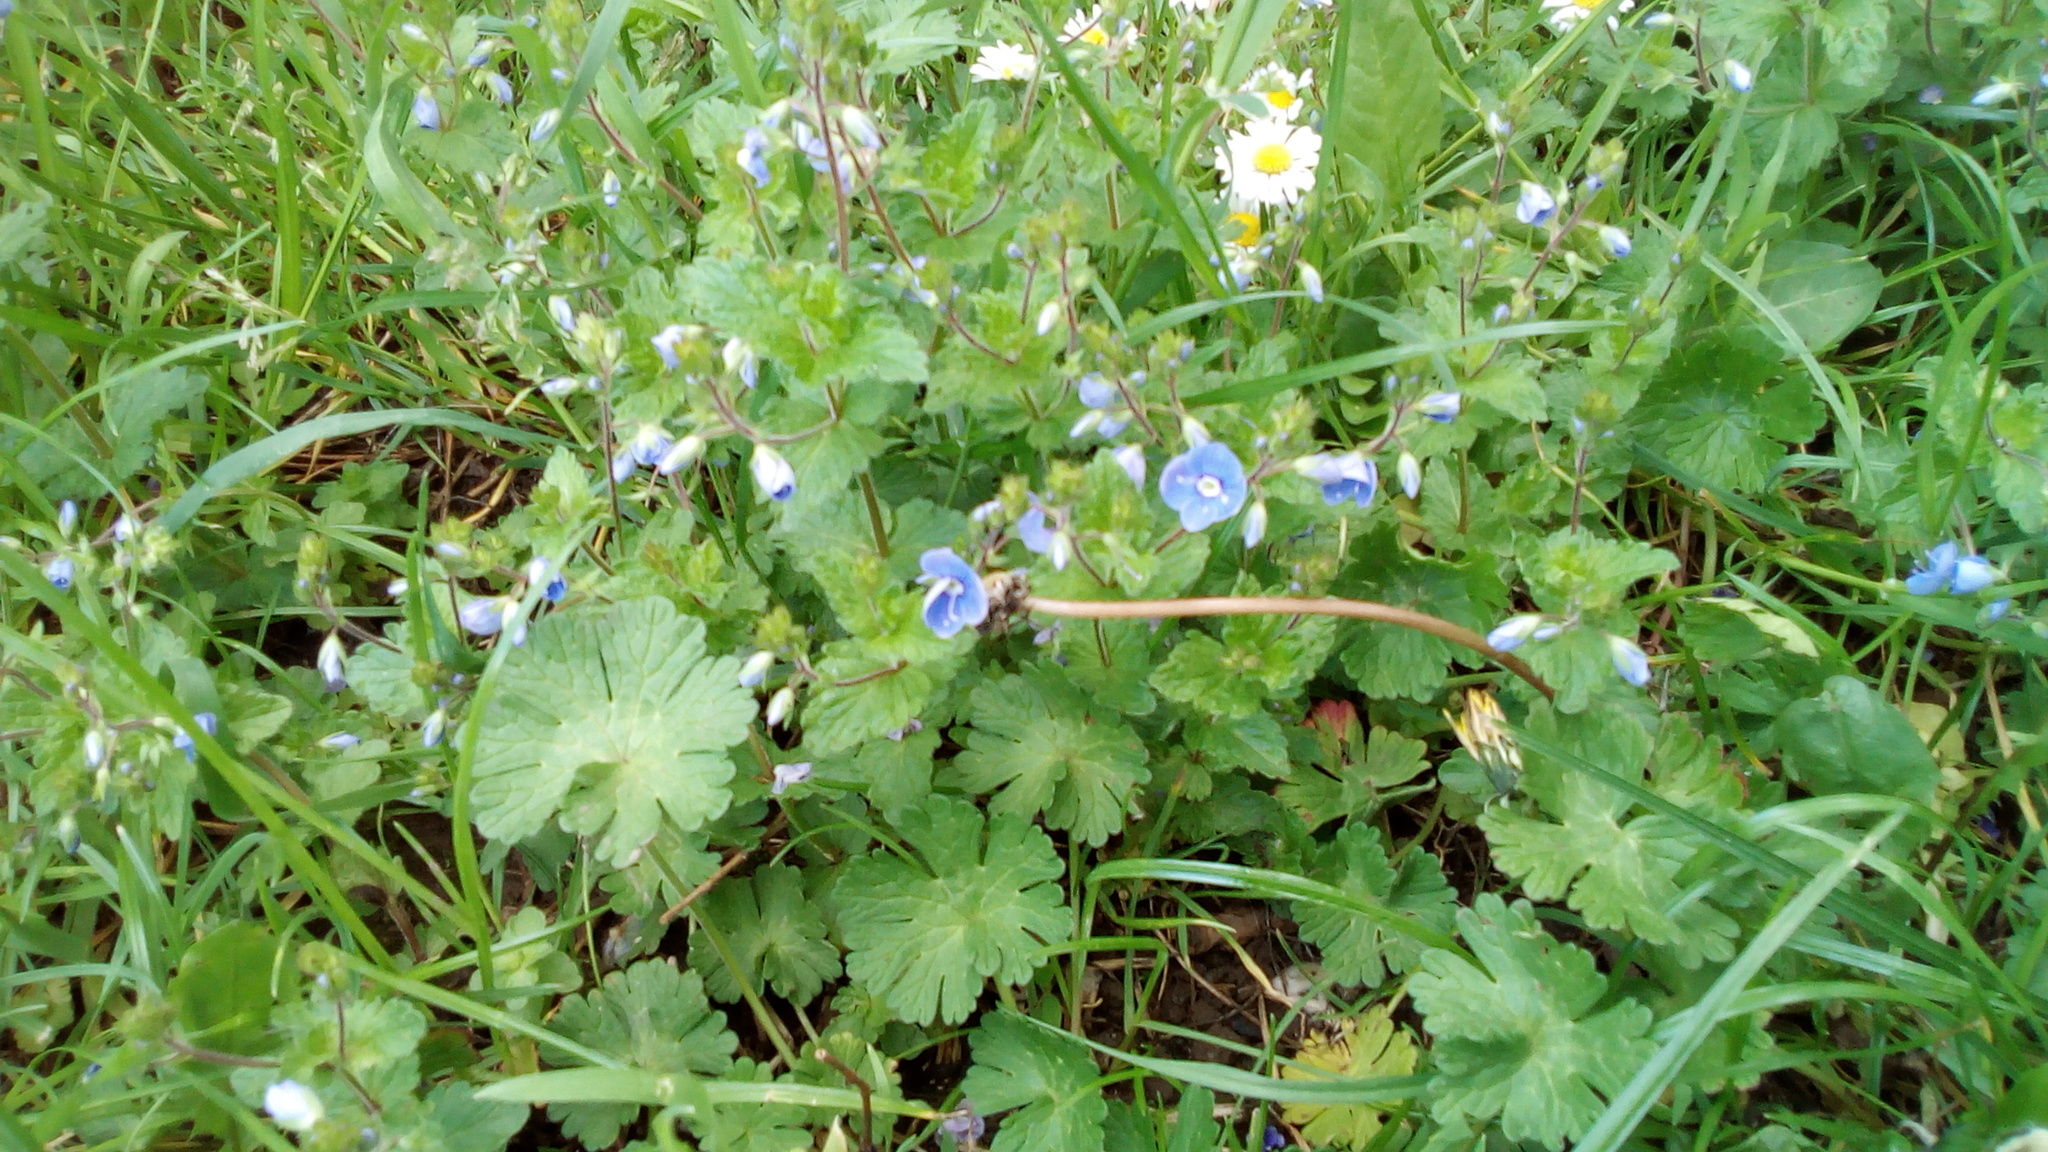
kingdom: Plantae
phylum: Tracheophyta
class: Magnoliopsida
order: Lamiales
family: Plantaginaceae
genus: Veronica
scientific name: Veronica chamaedrys
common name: Germander speedwell
